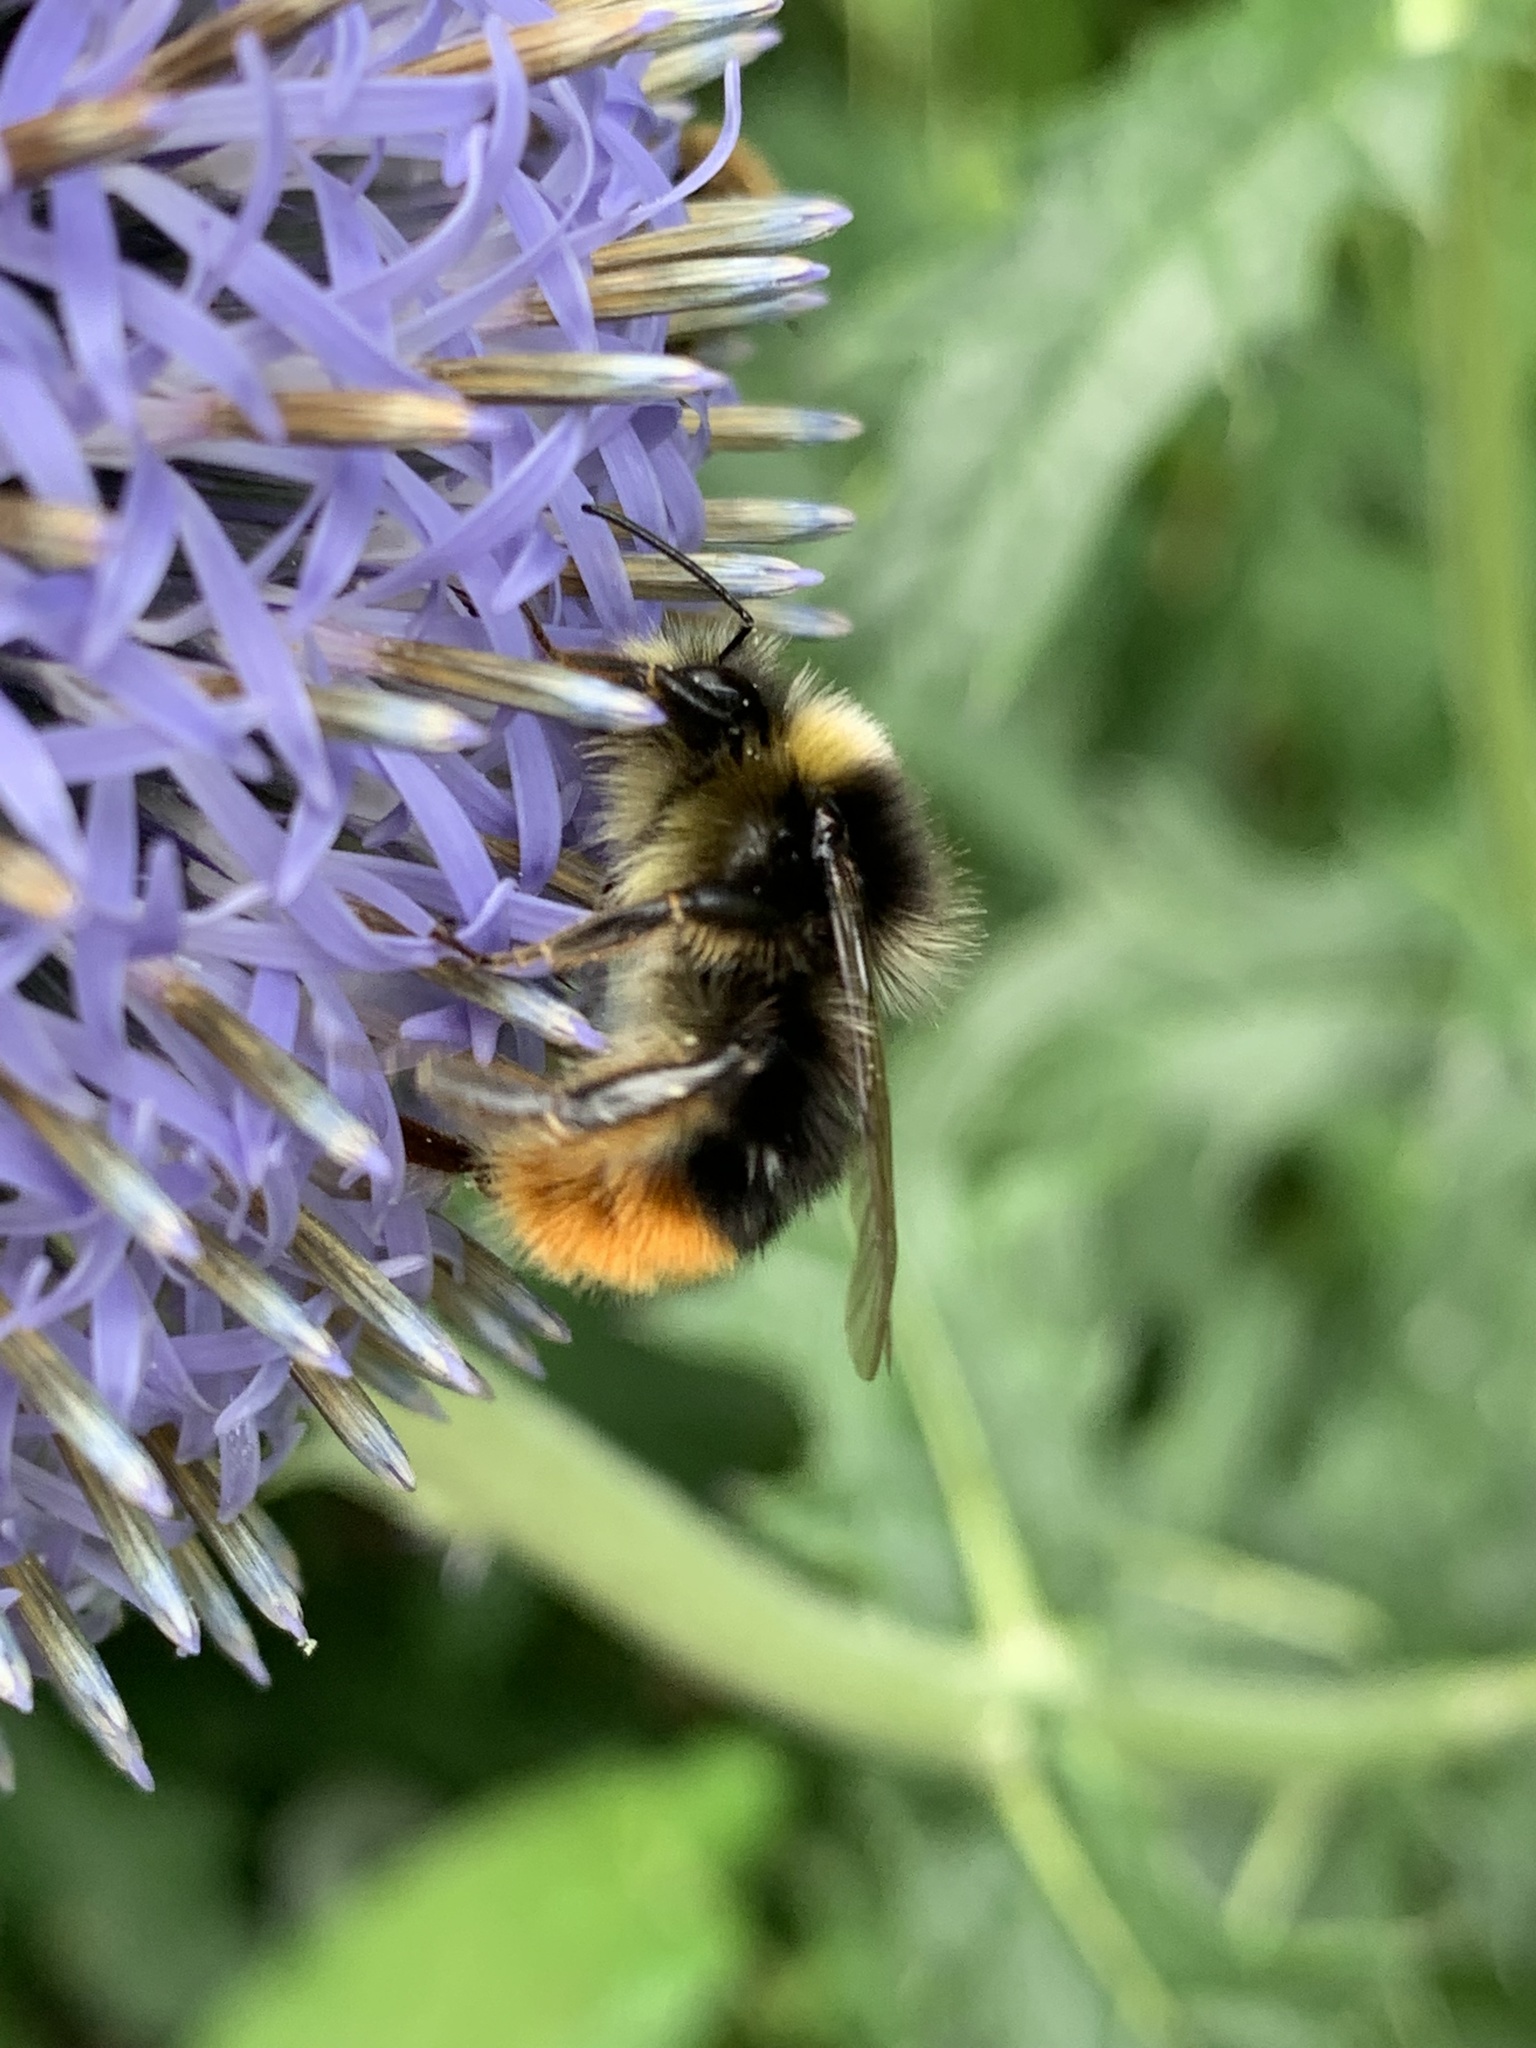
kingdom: Animalia
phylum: Arthropoda
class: Insecta
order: Hymenoptera
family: Apidae
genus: Bombus
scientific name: Bombus lapidarius
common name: Large red-tailed humble-bee
